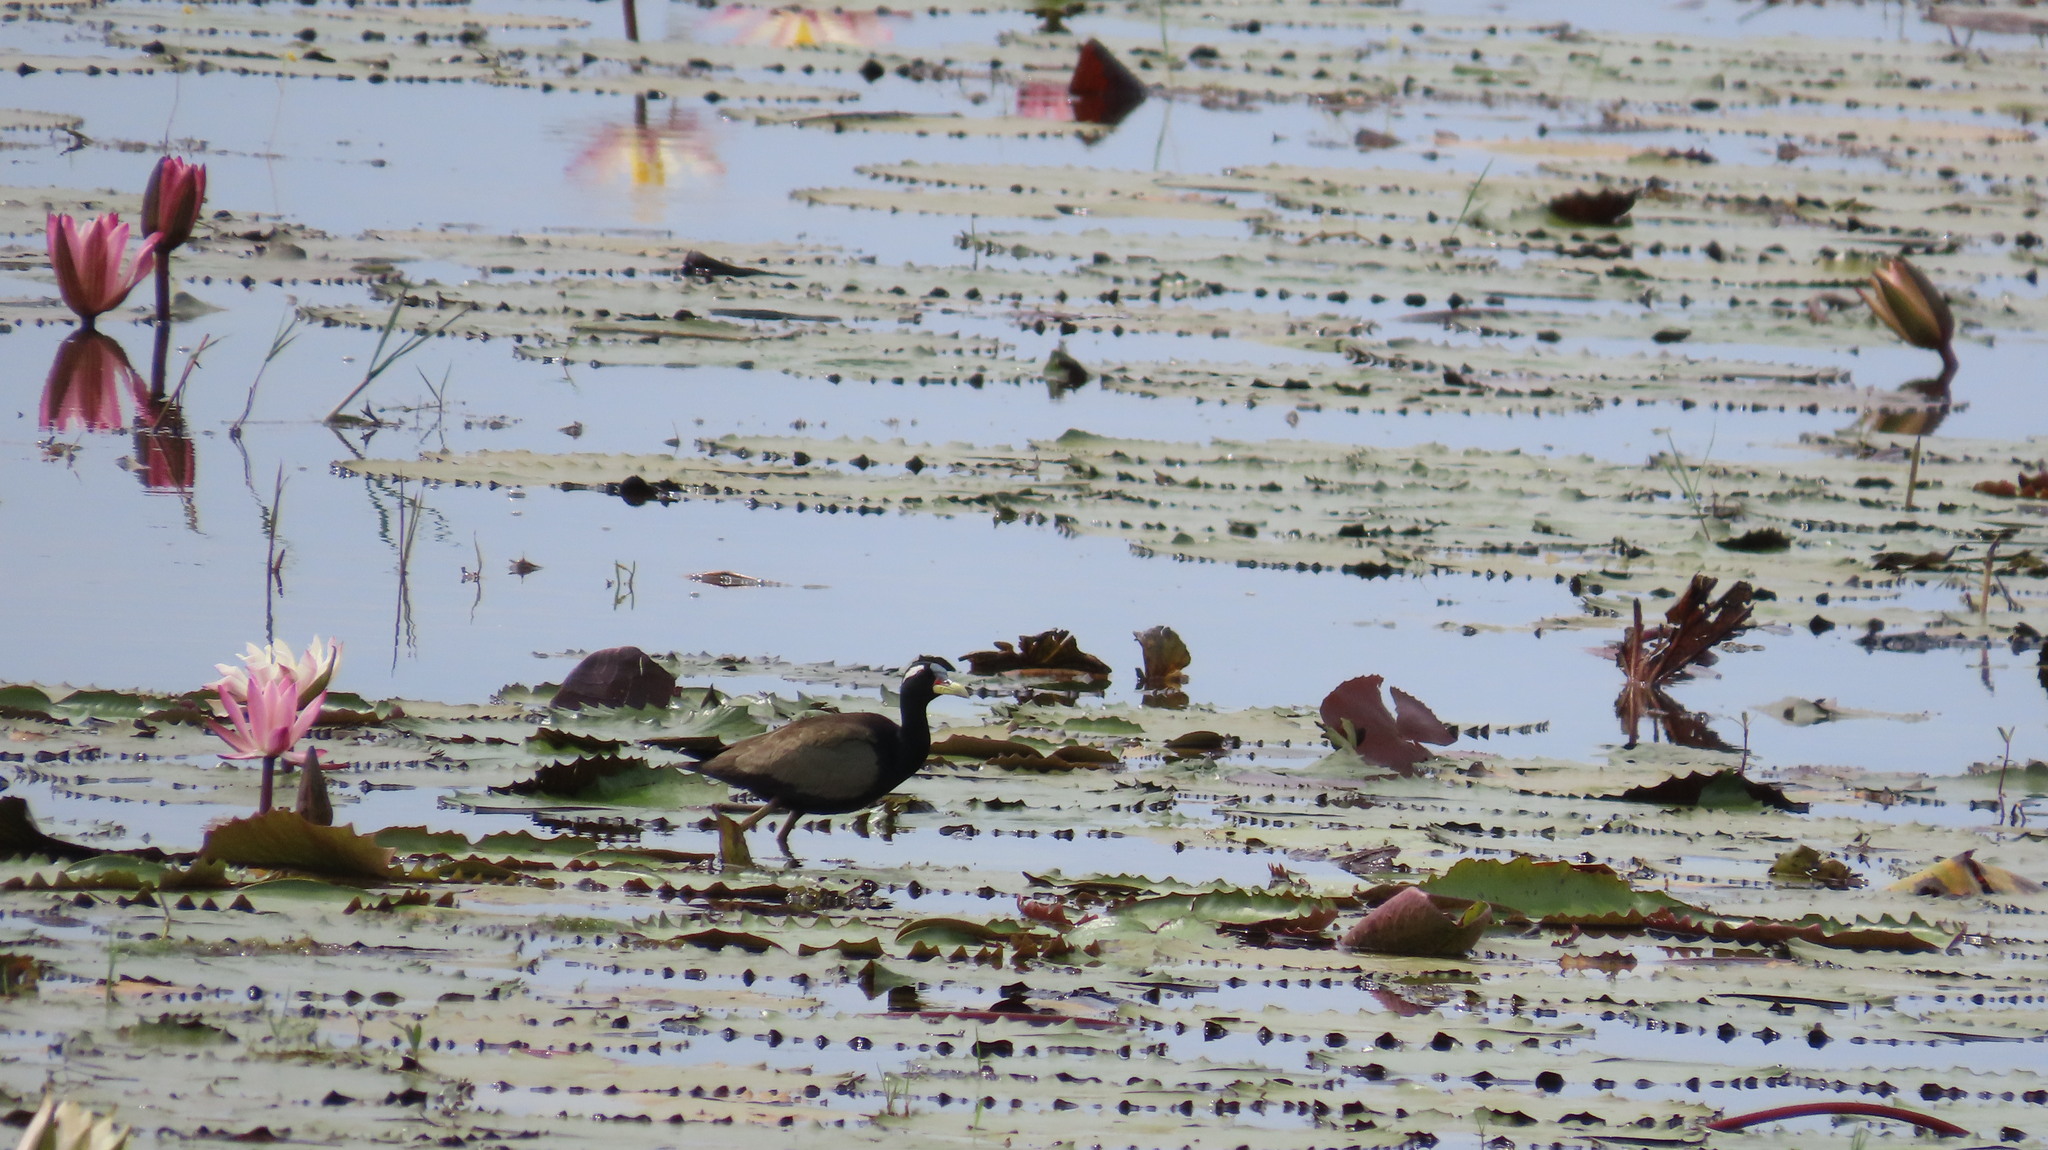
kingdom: Animalia
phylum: Chordata
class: Aves
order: Charadriiformes
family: Jacanidae
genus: Metopidius
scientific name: Metopidius indicus
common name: Bronze-winged jacana
